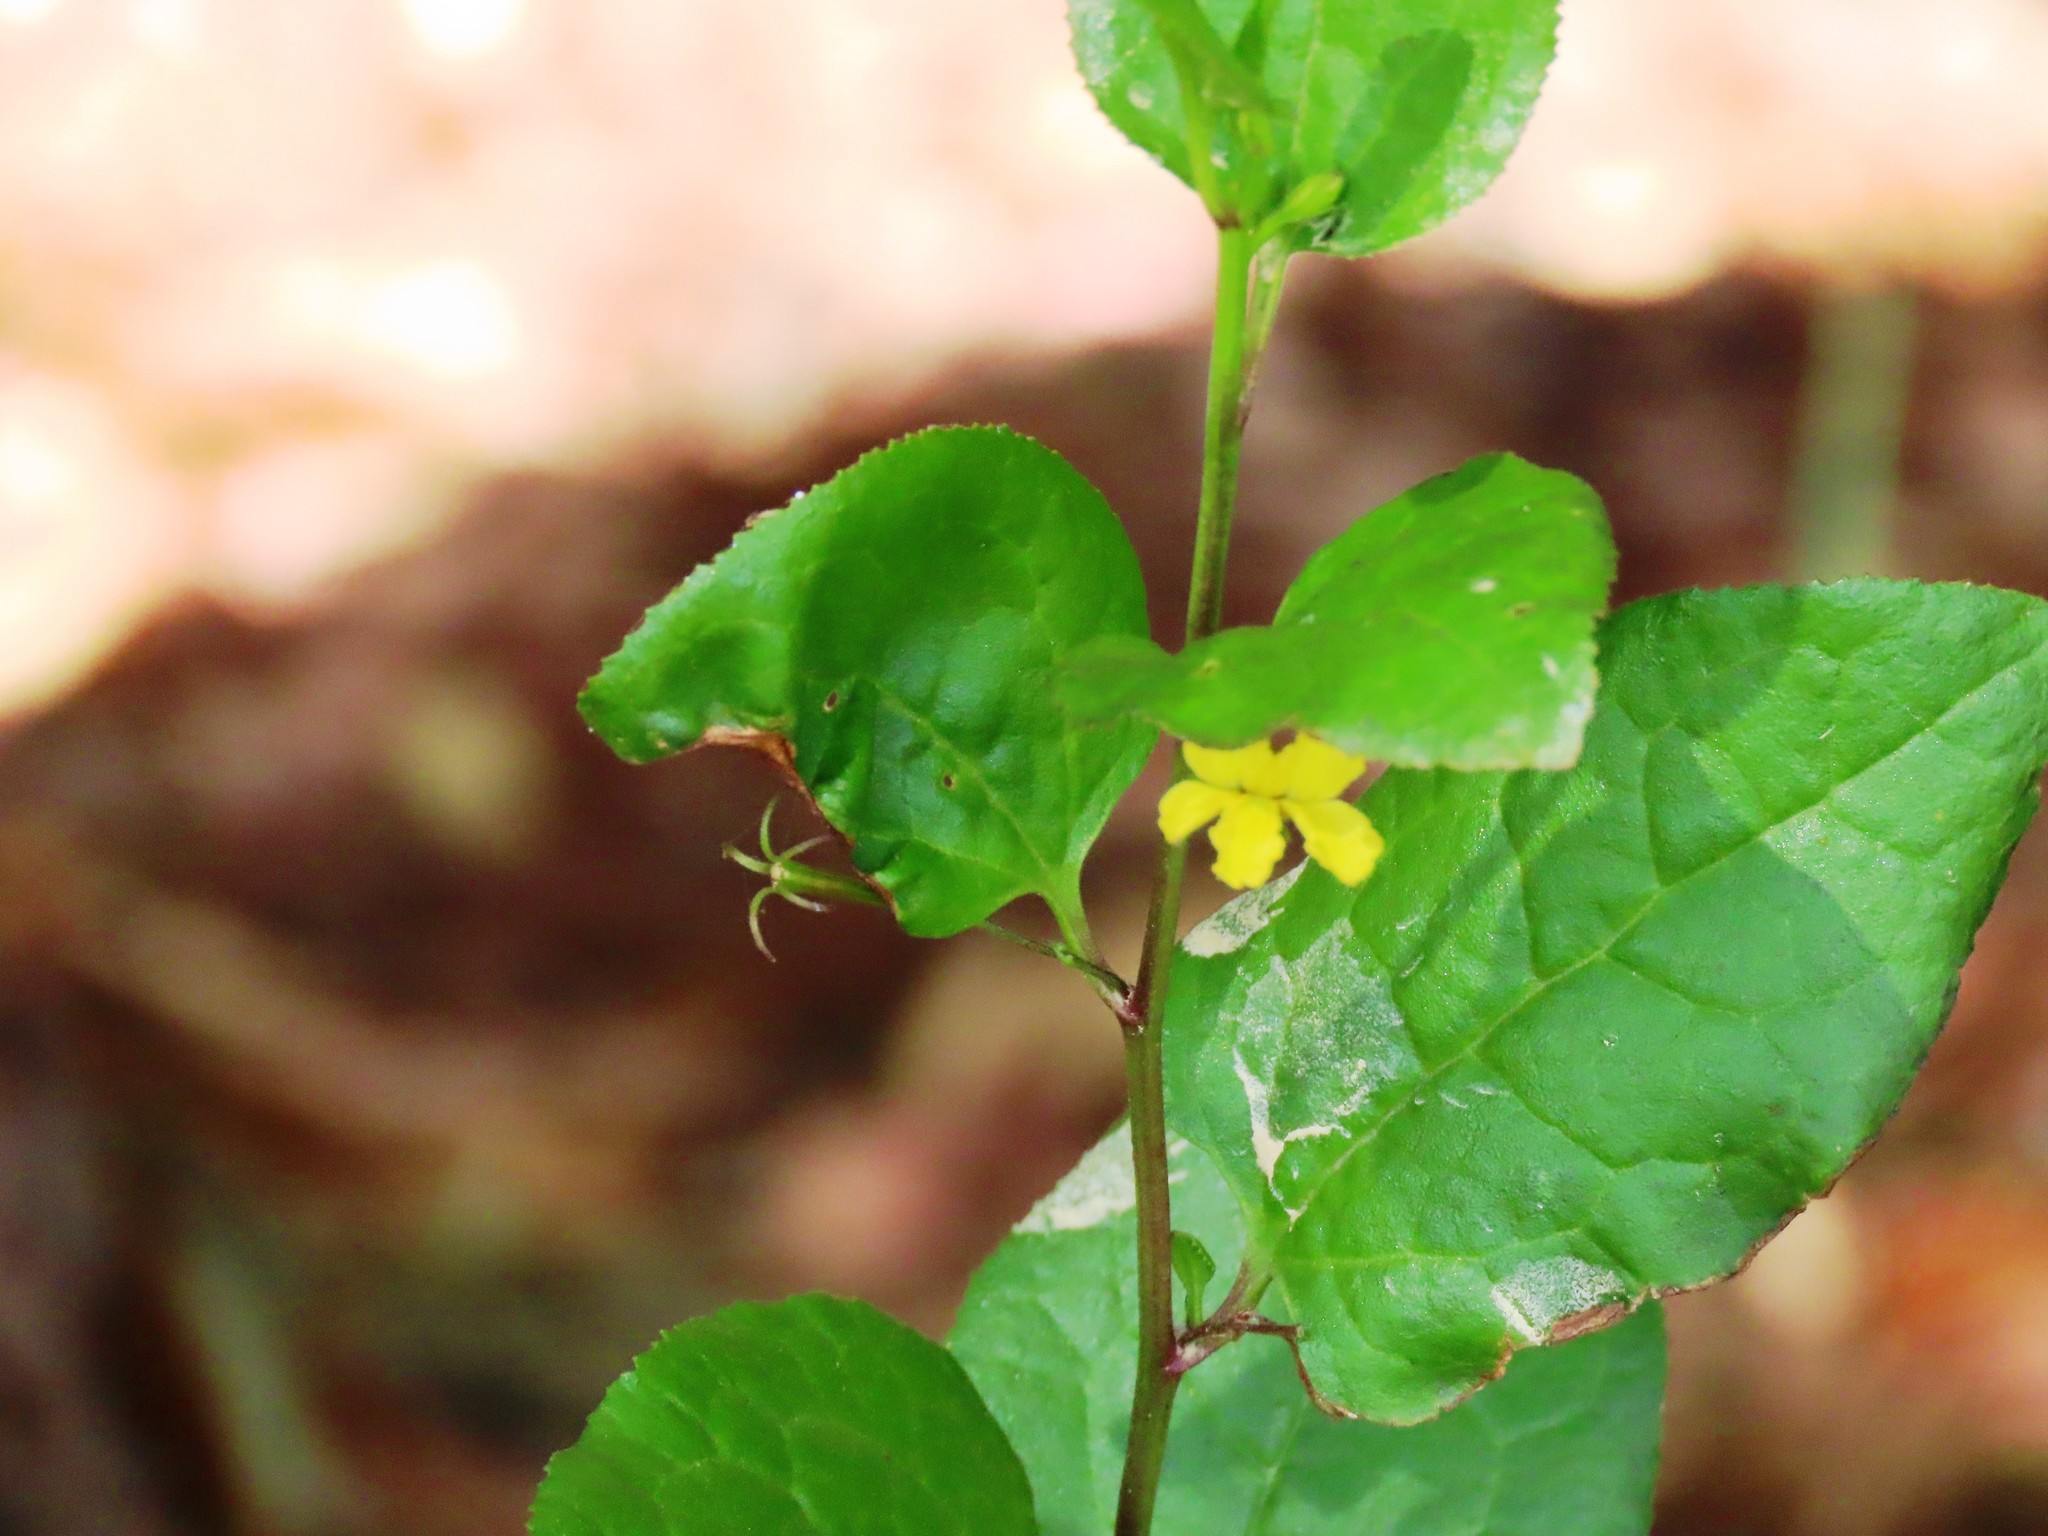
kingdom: Plantae
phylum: Tracheophyta
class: Magnoliopsida
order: Asterales
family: Goodeniaceae
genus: Goodenia
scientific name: Goodenia ovata
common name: Hop goodenia
